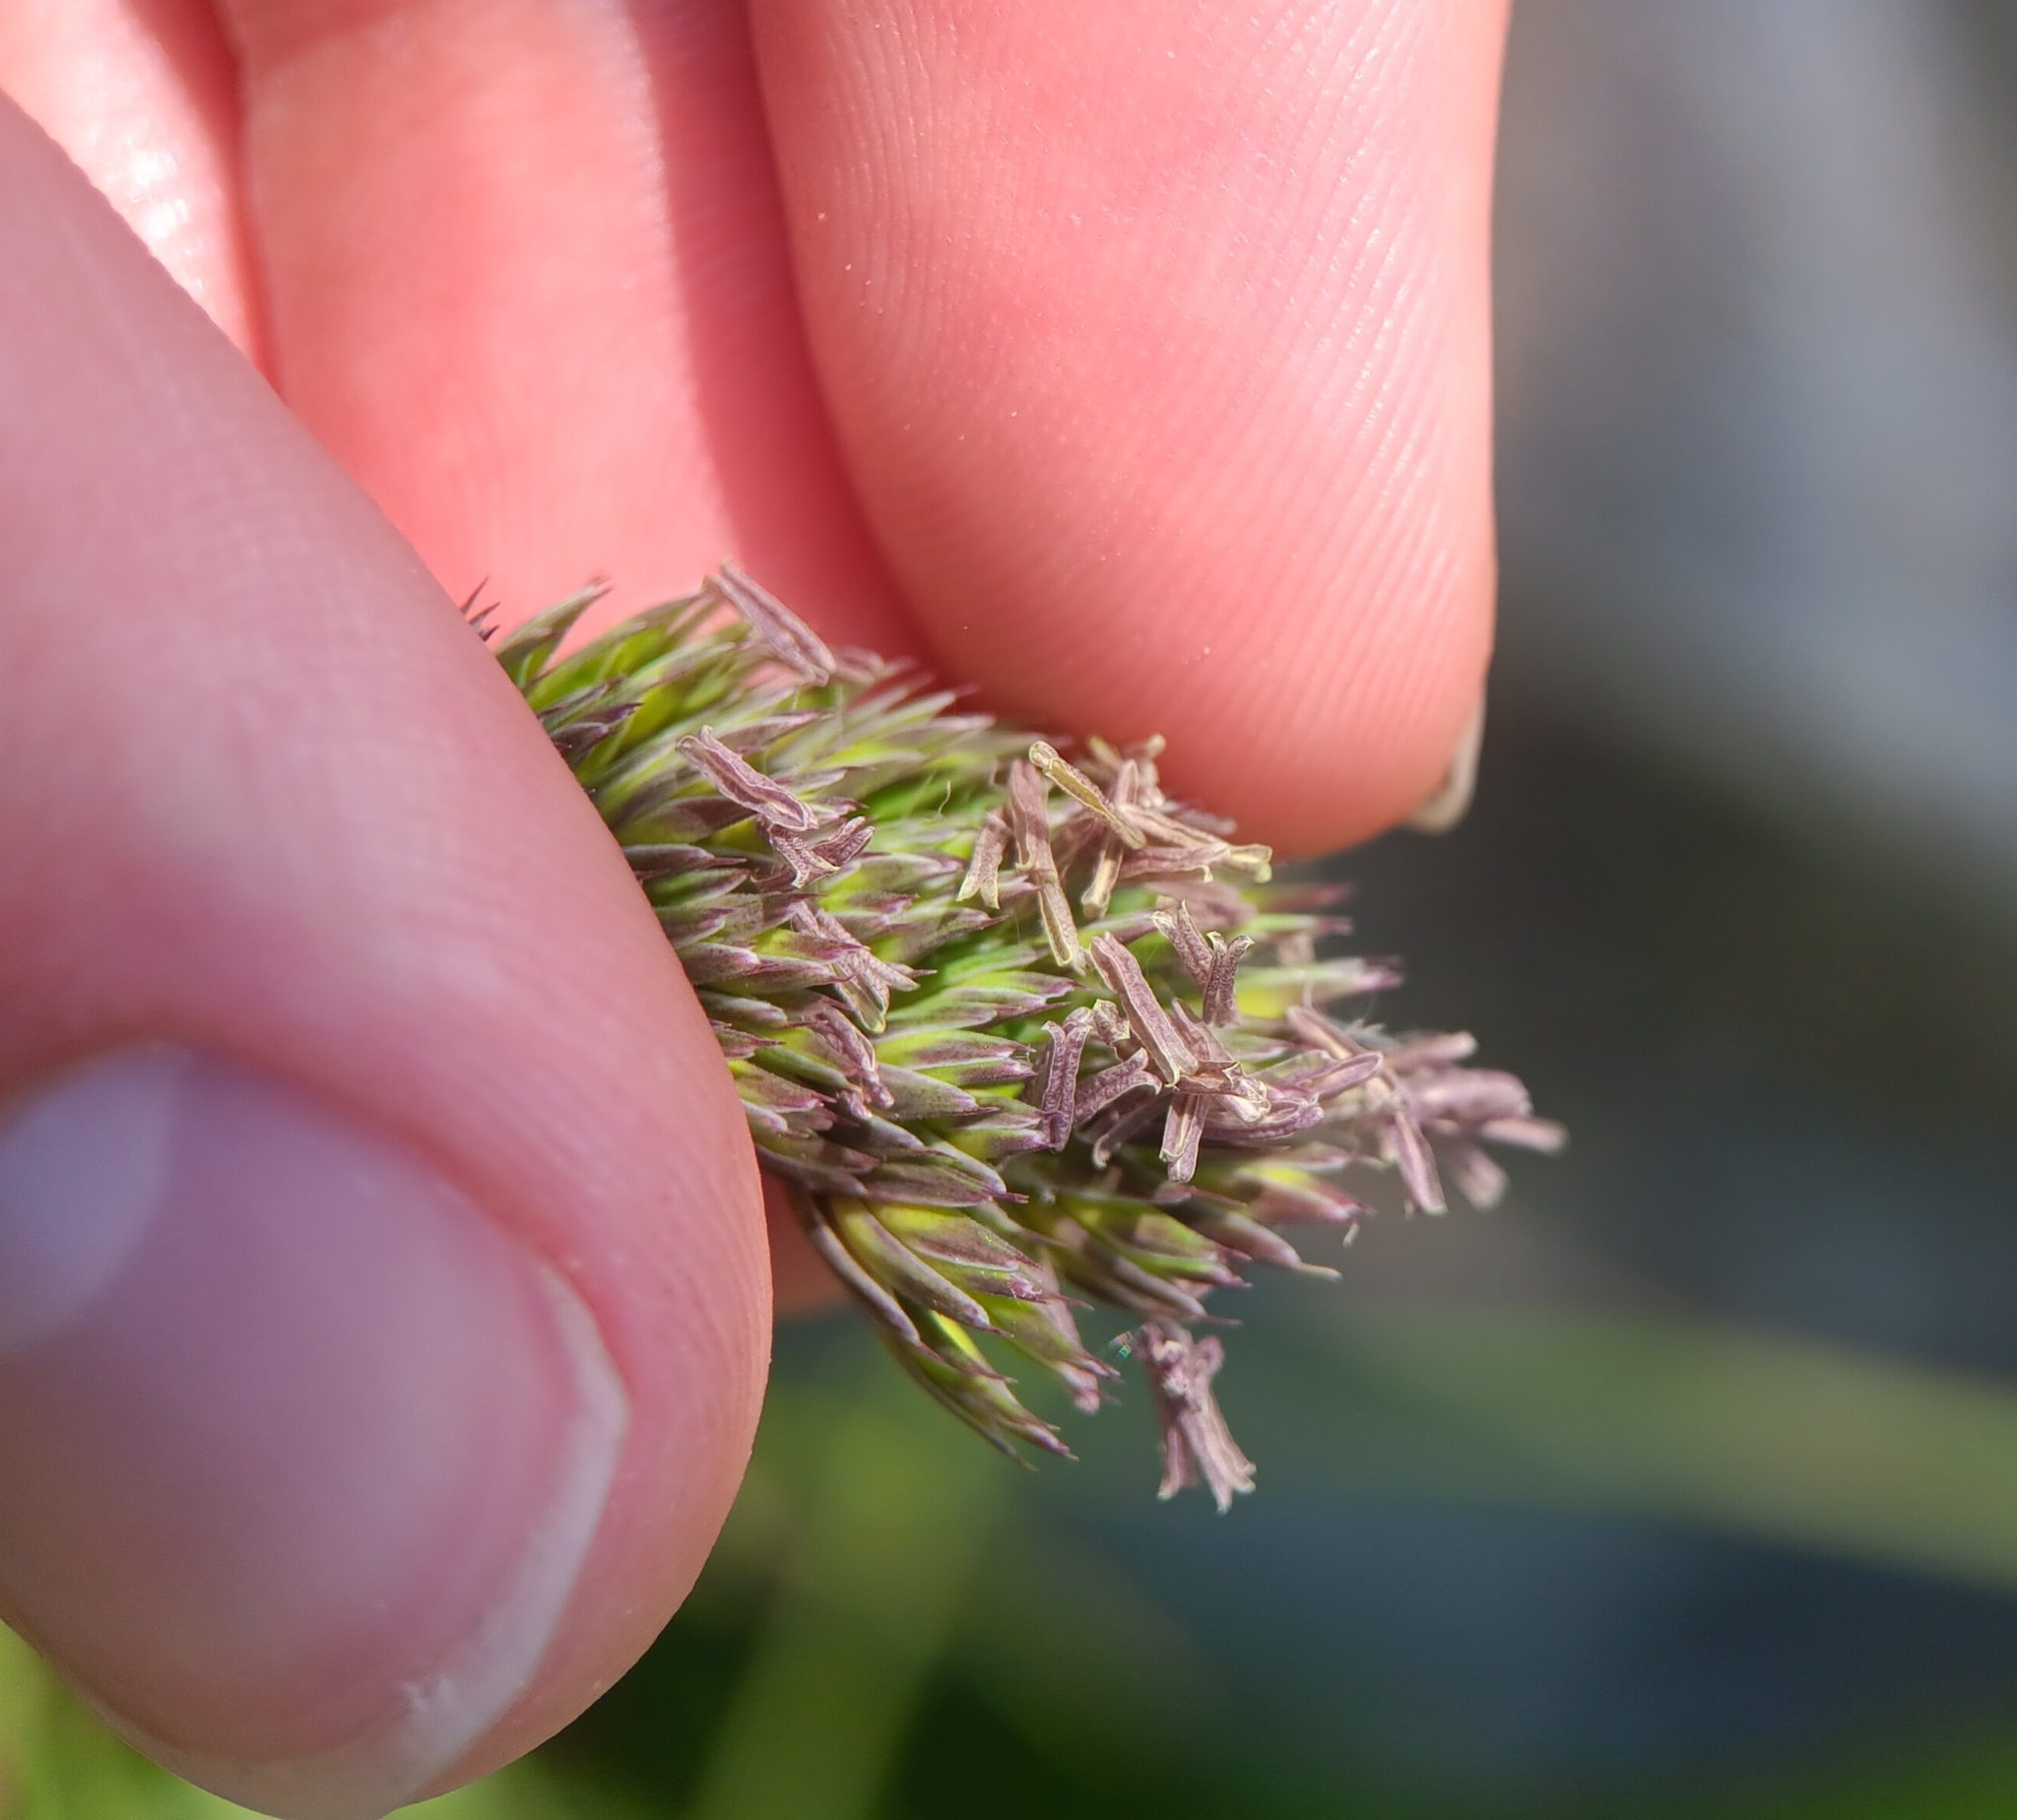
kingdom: Plantae
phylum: Tracheophyta
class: Liliopsida
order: Poales
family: Poaceae
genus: Dactylis
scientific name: Dactylis glomerata
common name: Orchardgrass
